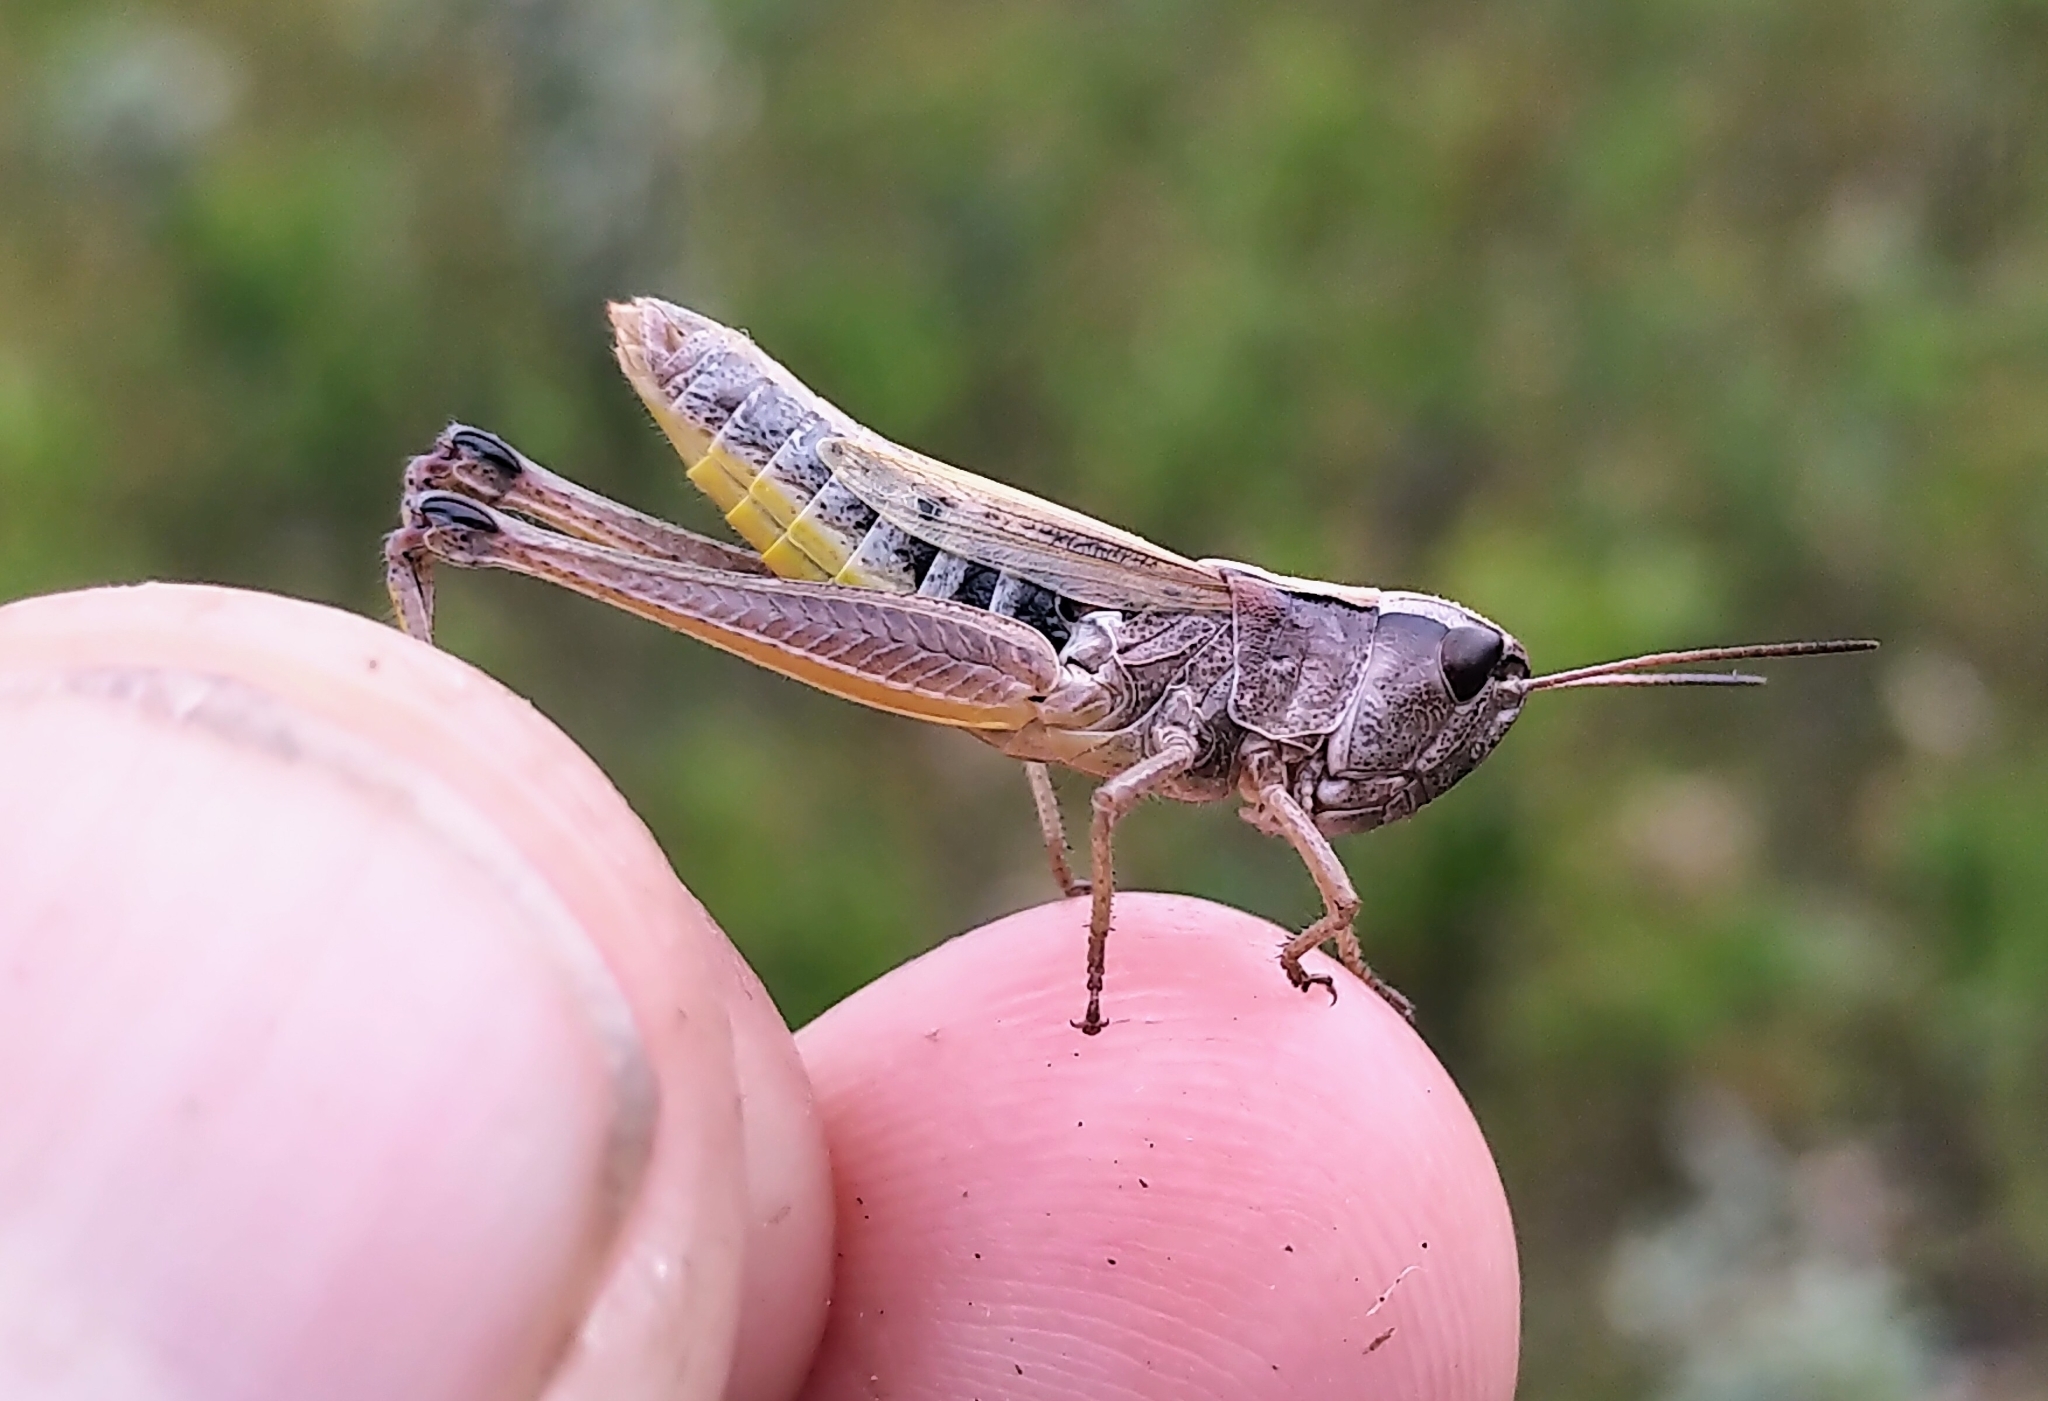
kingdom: Animalia
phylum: Arthropoda
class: Insecta
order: Orthoptera
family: Acrididae
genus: Pseudochorthippus
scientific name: Pseudochorthippus curtipennis
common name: Marsh meadow grasshopper
